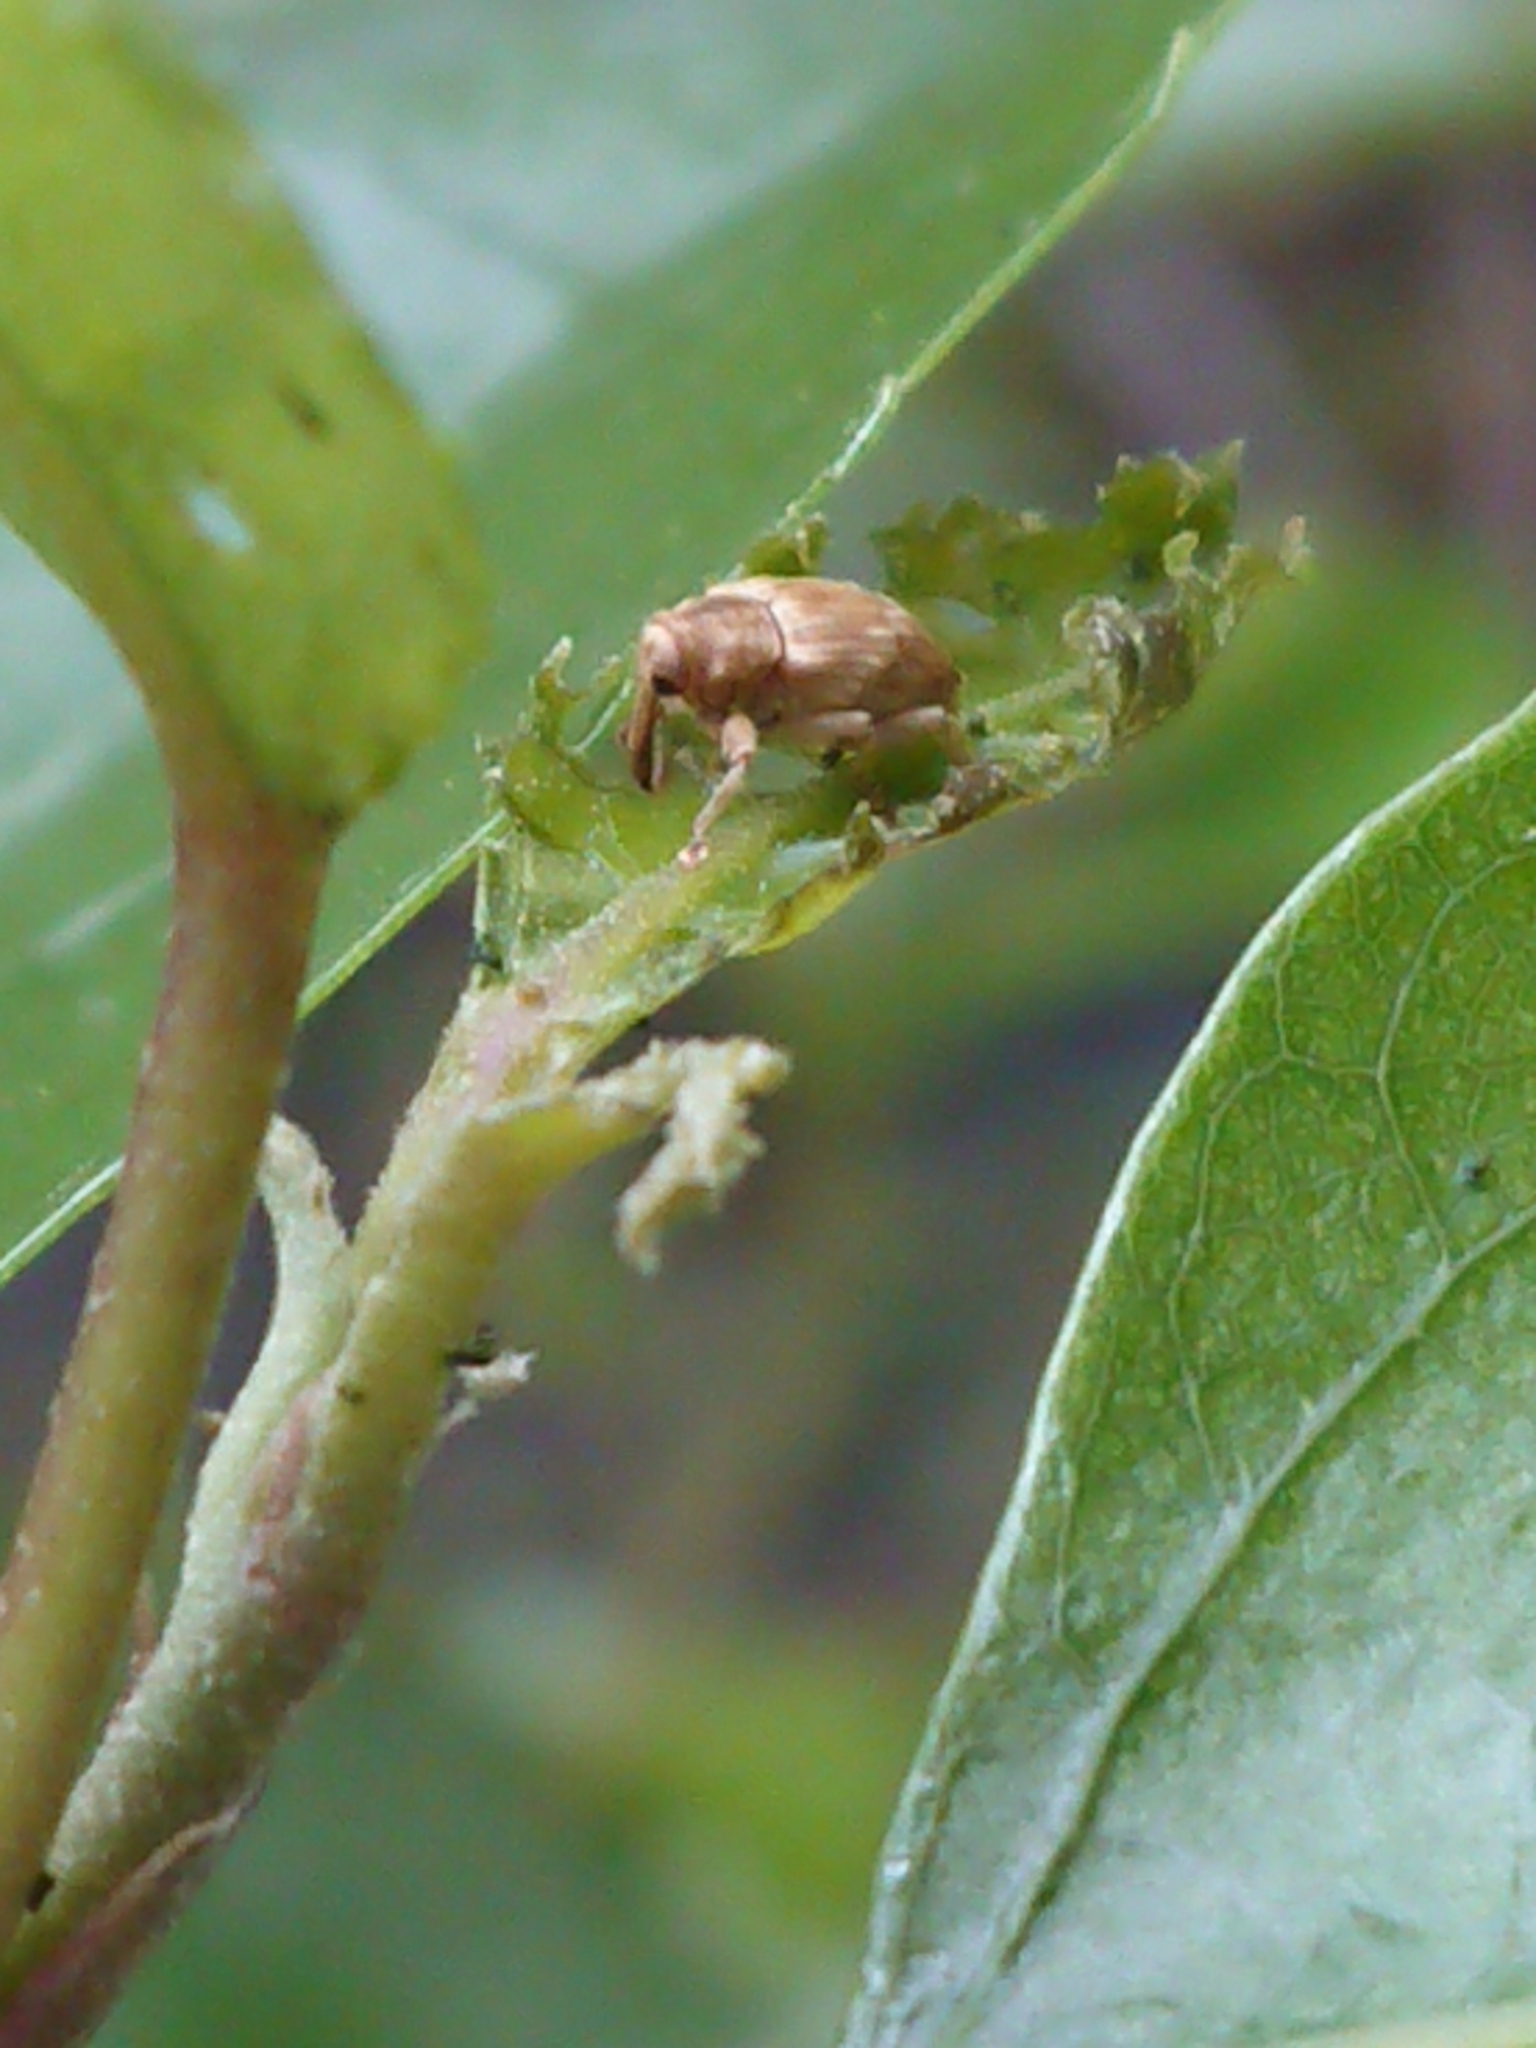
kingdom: Animalia
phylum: Arthropoda
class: Insecta
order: Coleoptera
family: Curculionidae
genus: Aneuma
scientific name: Aneuma compta
